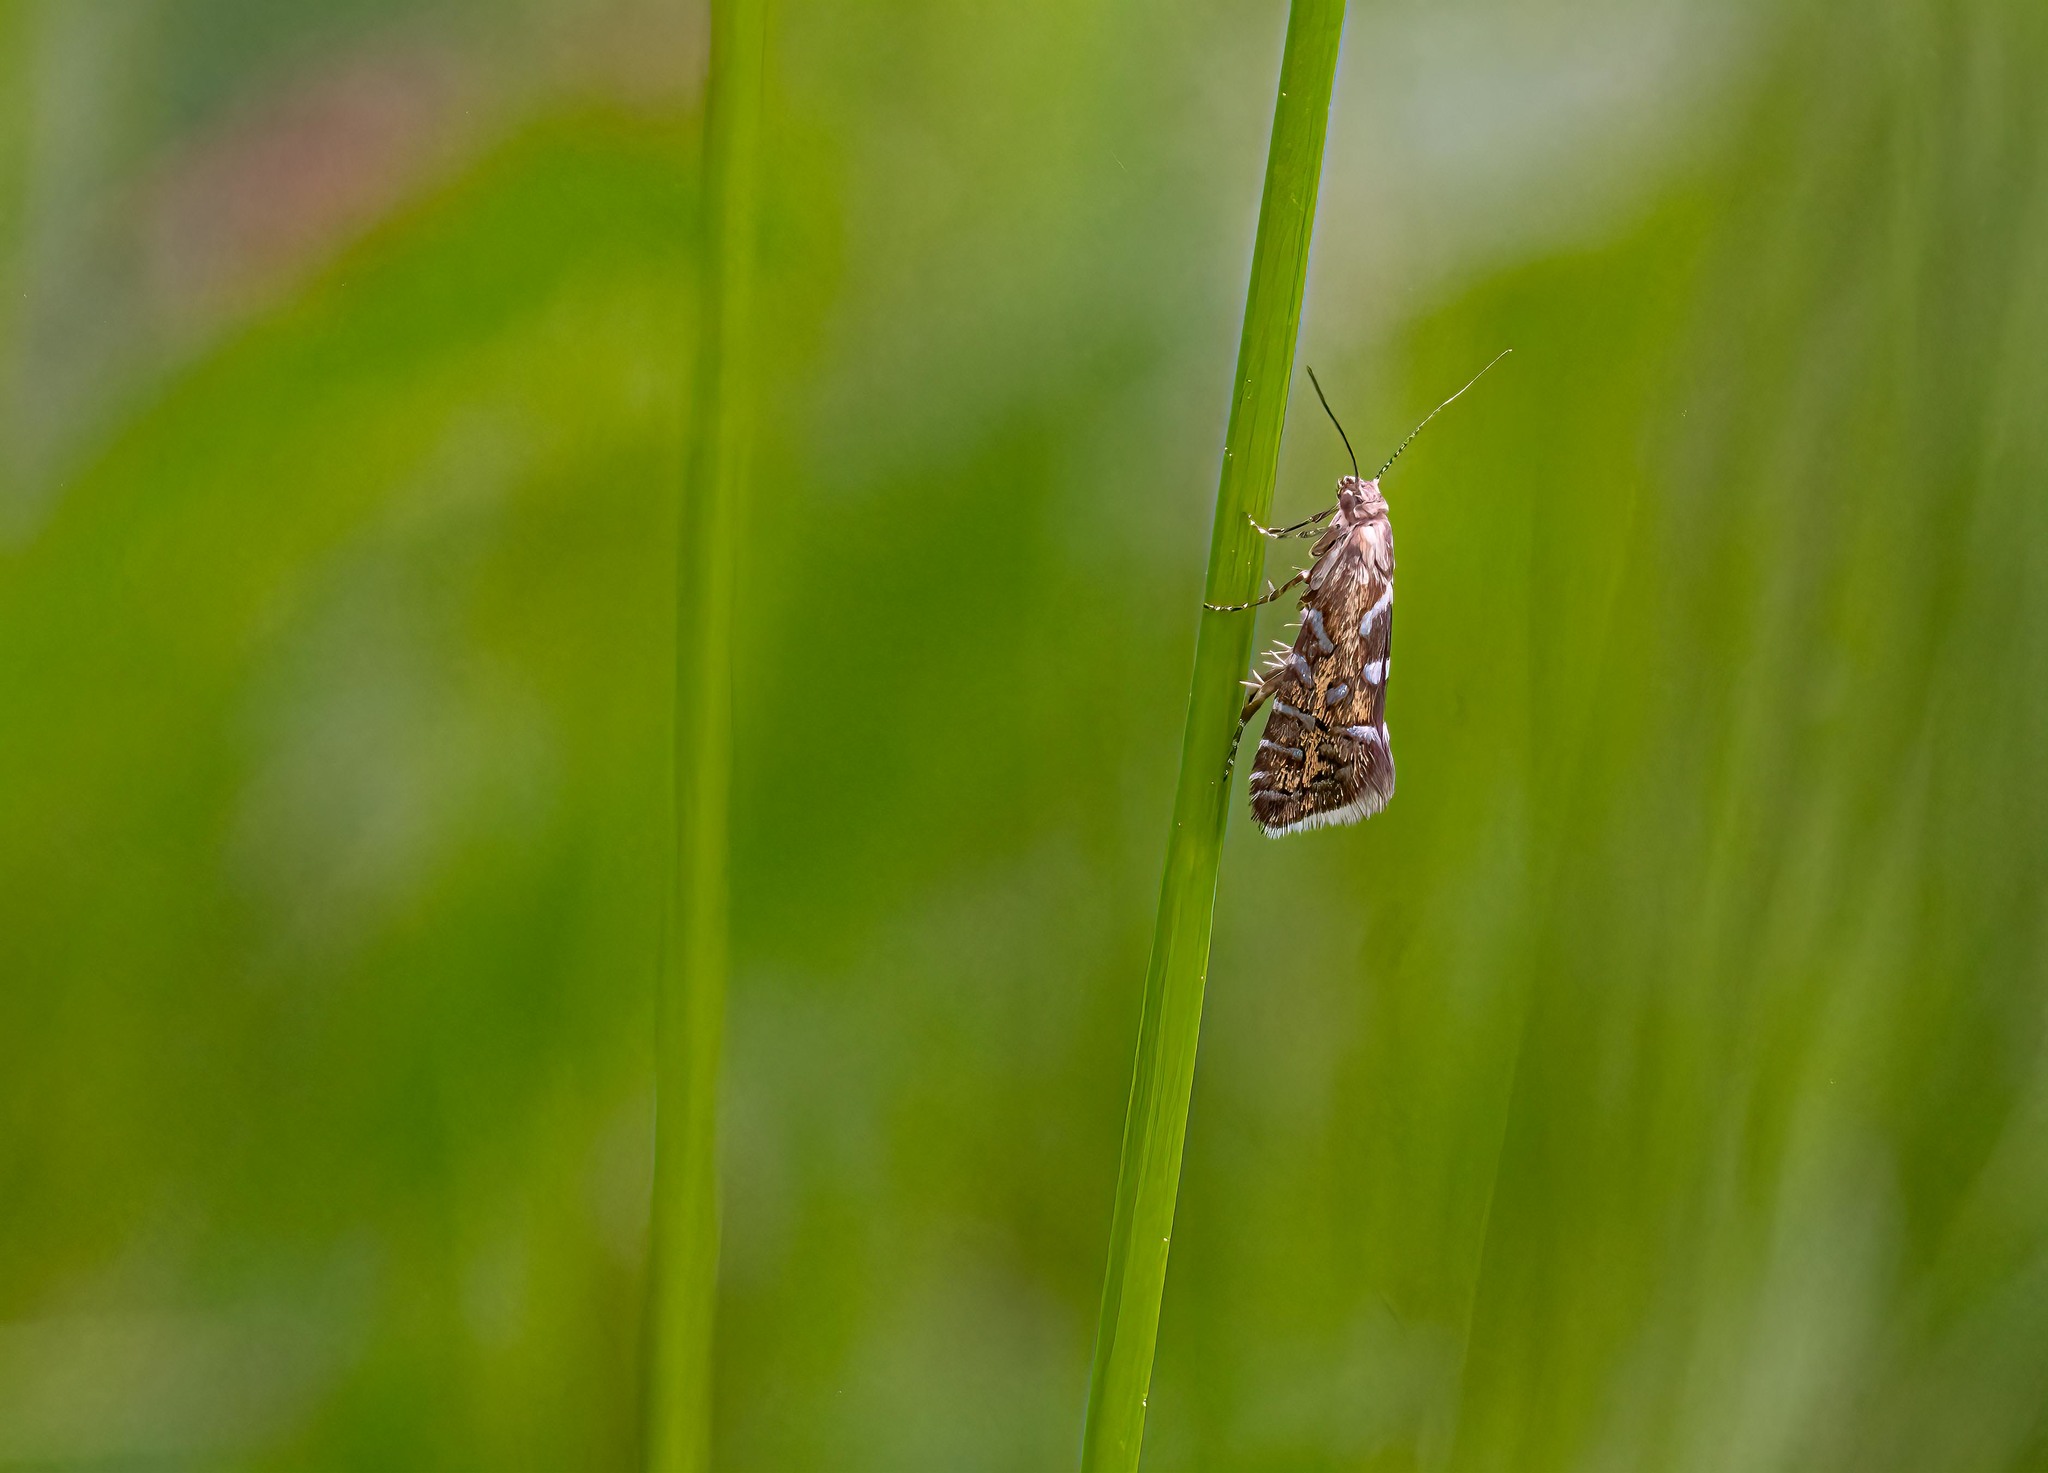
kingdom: Animalia
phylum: Arthropoda
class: Insecta
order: Lepidoptera
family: Glyphipterigidae
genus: Glyphipterix
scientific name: Glyphipterix bergstraesserella
